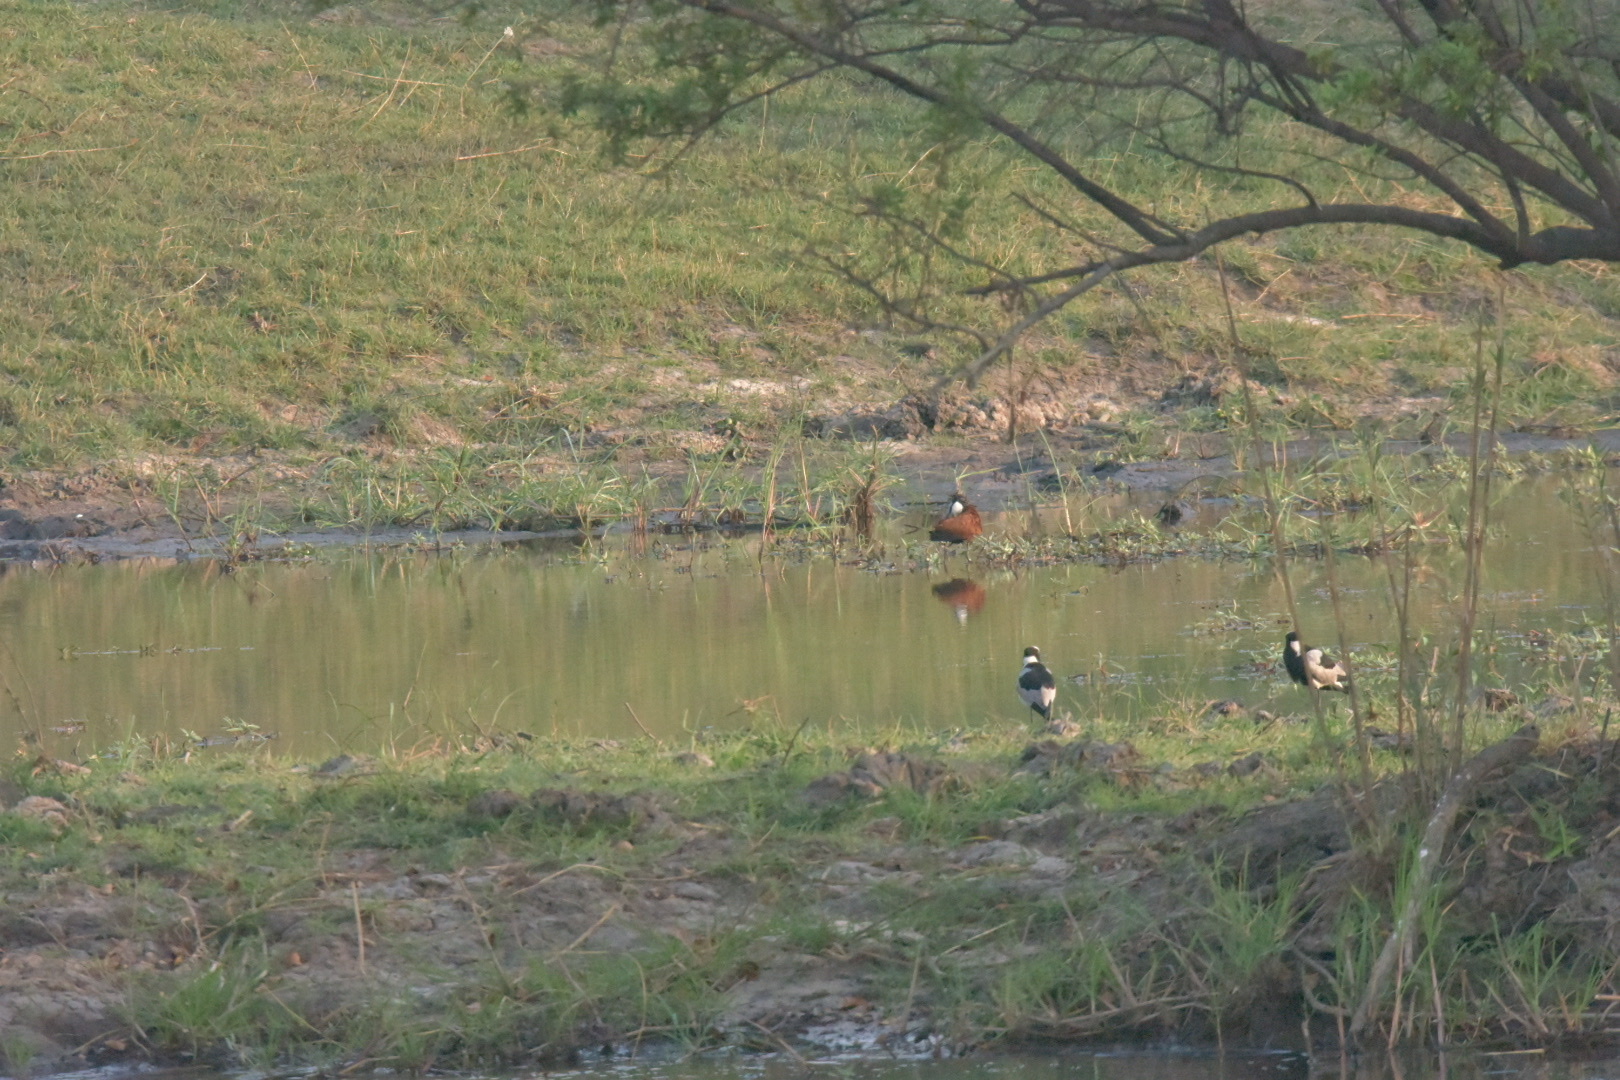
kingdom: Animalia
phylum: Chordata
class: Aves
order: Charadriiformes
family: Charadriidae
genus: Vanellus
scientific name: Vanellus armatus
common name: Blacksmith lapwing
